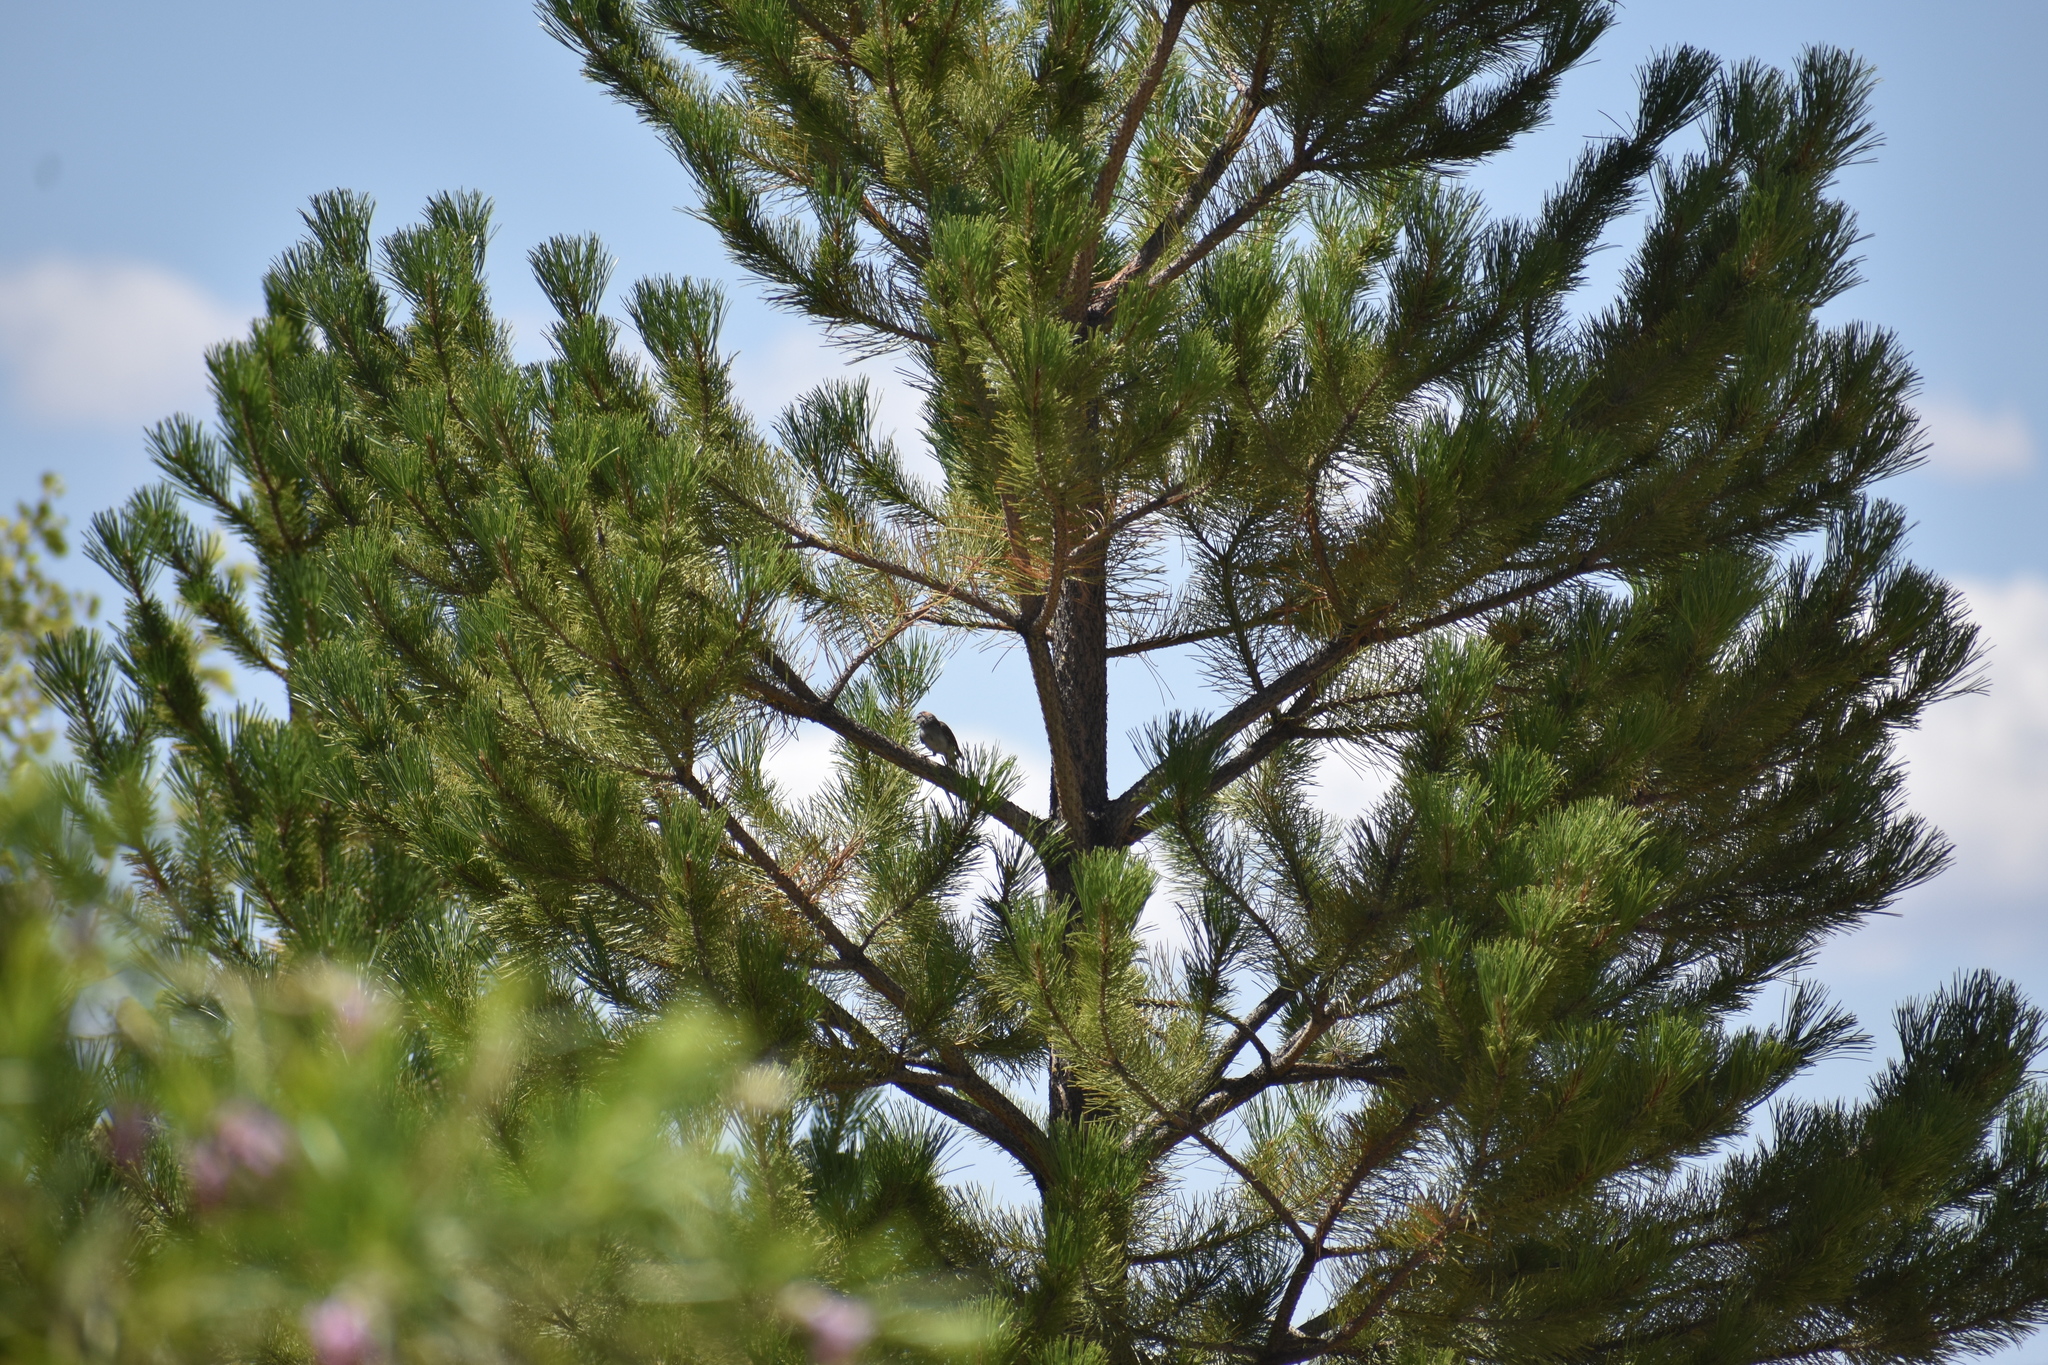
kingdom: Animalia
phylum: Chordata
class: Aves
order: Passeriformes
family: Parulidae
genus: Leiothlypis
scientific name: Leiothlypis virginiae
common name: Virginia's warbler
